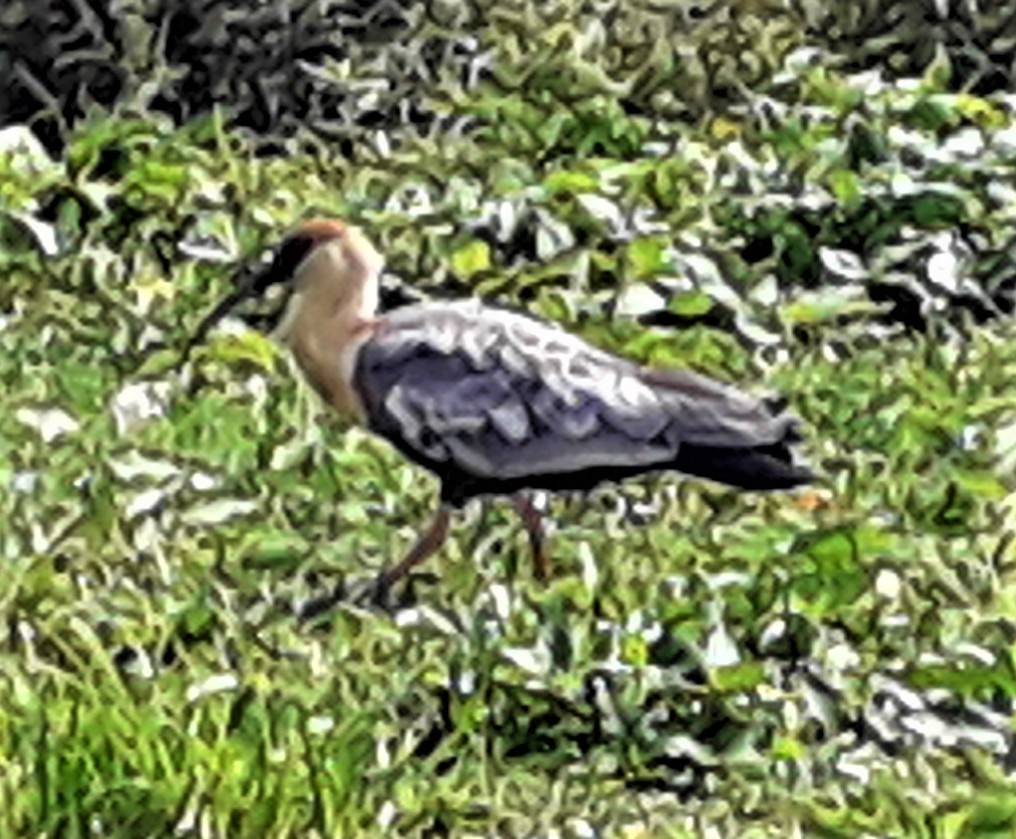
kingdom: Animalia
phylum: Chordata
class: Aves
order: Pelecaniformes
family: Threskiornithidae
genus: Theristicus
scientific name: Theristicus caudatus
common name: Buff-necked ibis
